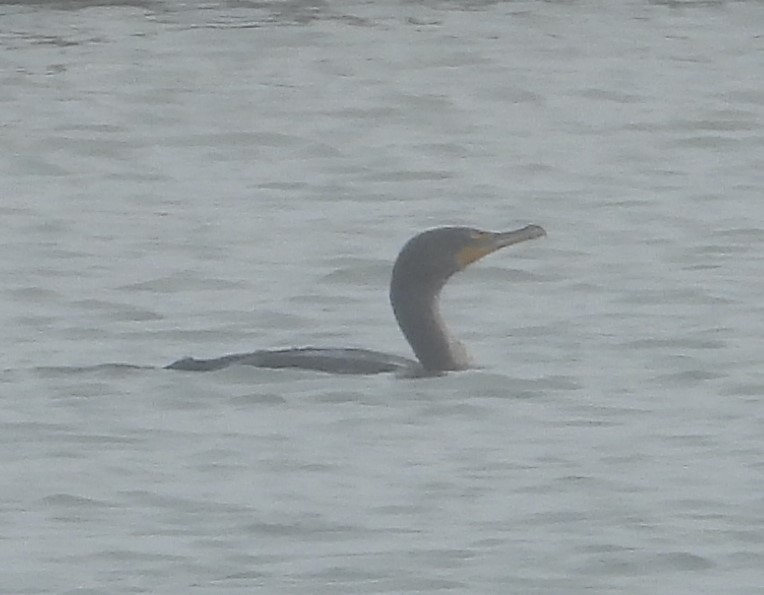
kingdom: Animalia
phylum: Chordata
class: Aves
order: Suliformes
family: Phalacrocoracidae
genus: Phalacrocorax
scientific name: Phalacrocorax auritus
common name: Double-crested cormorant
